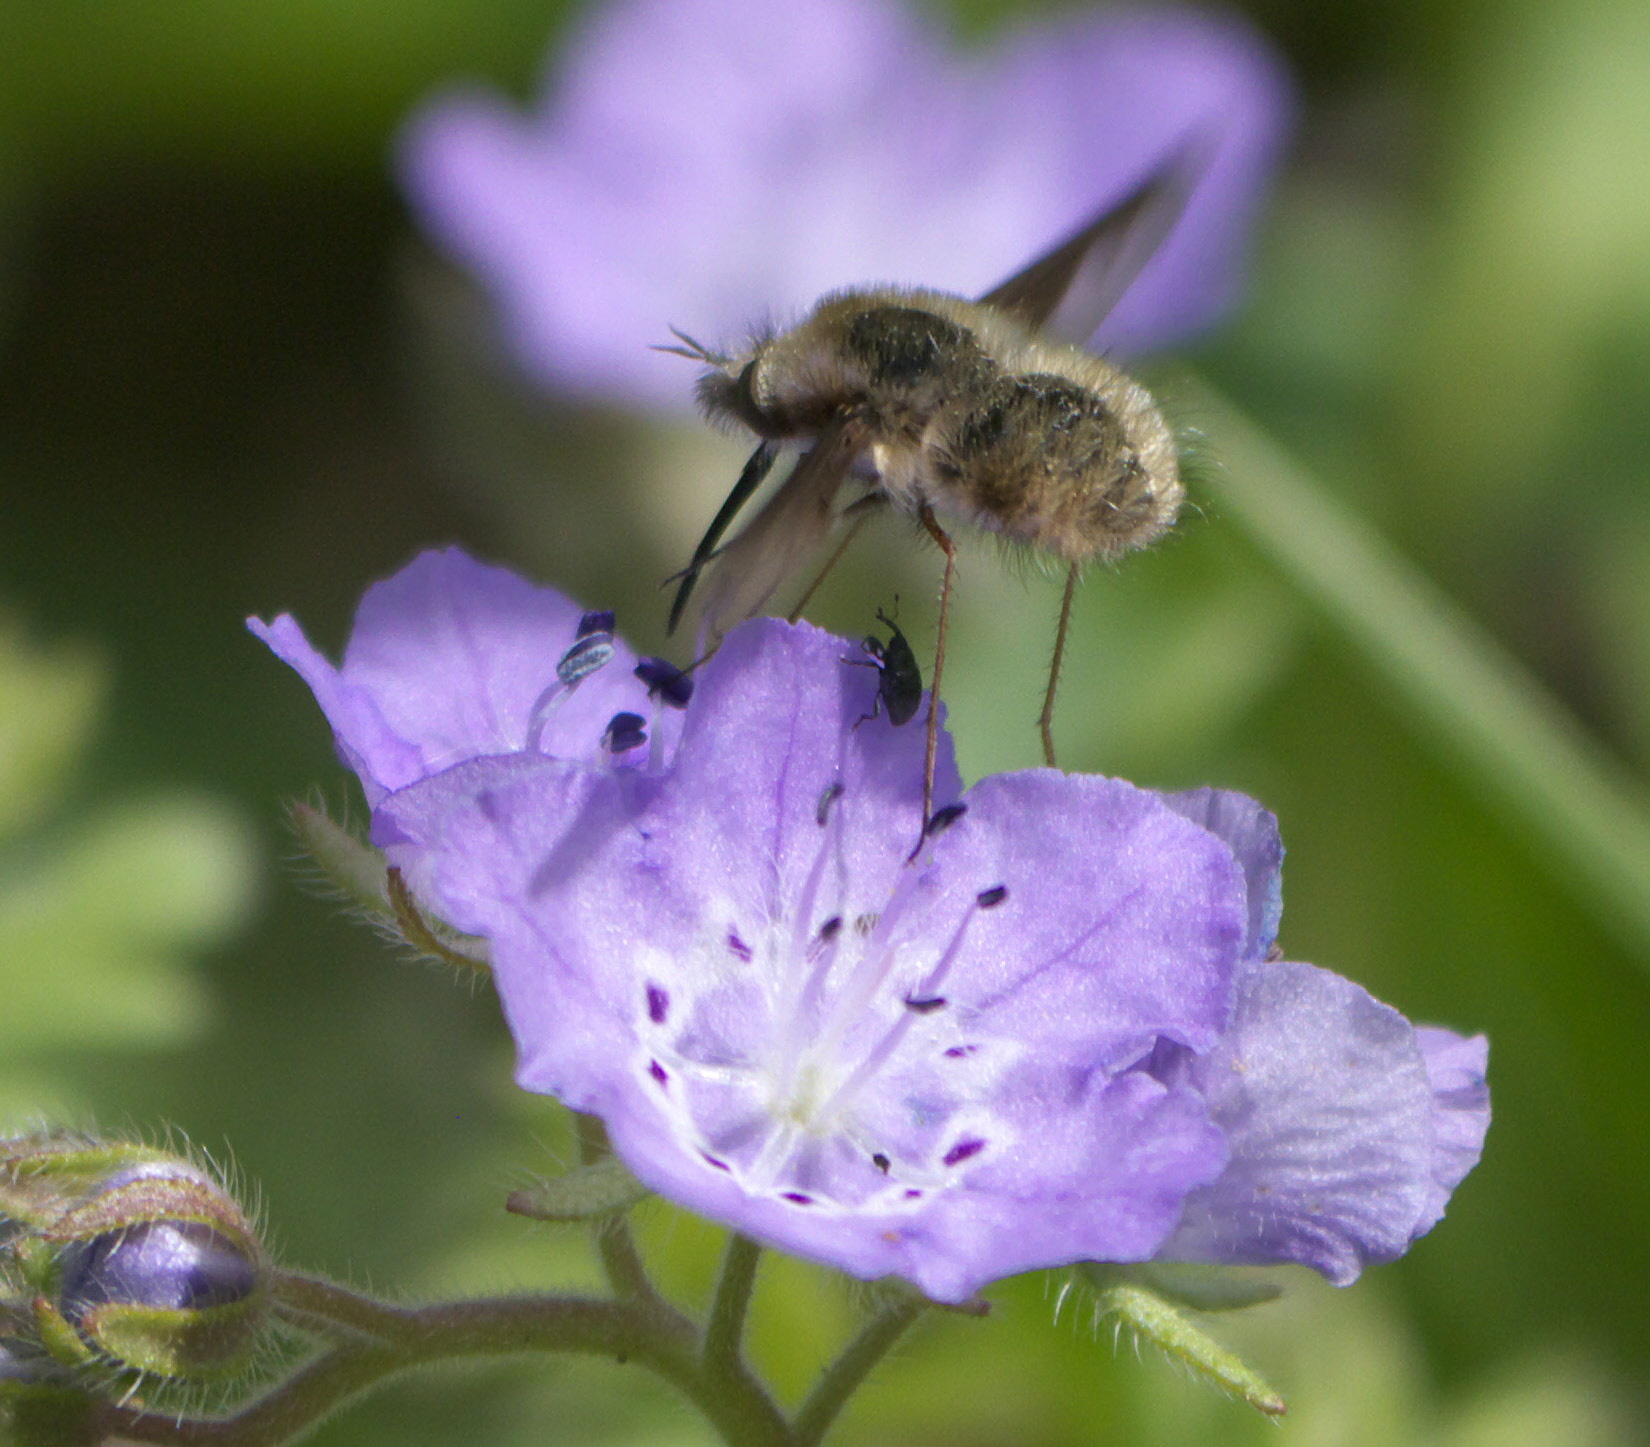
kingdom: Animalia
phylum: Arthropoda
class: Insecta
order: Diptera
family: Bombyliidae
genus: Bombylius
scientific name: Bombylius major
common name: Bee fly
